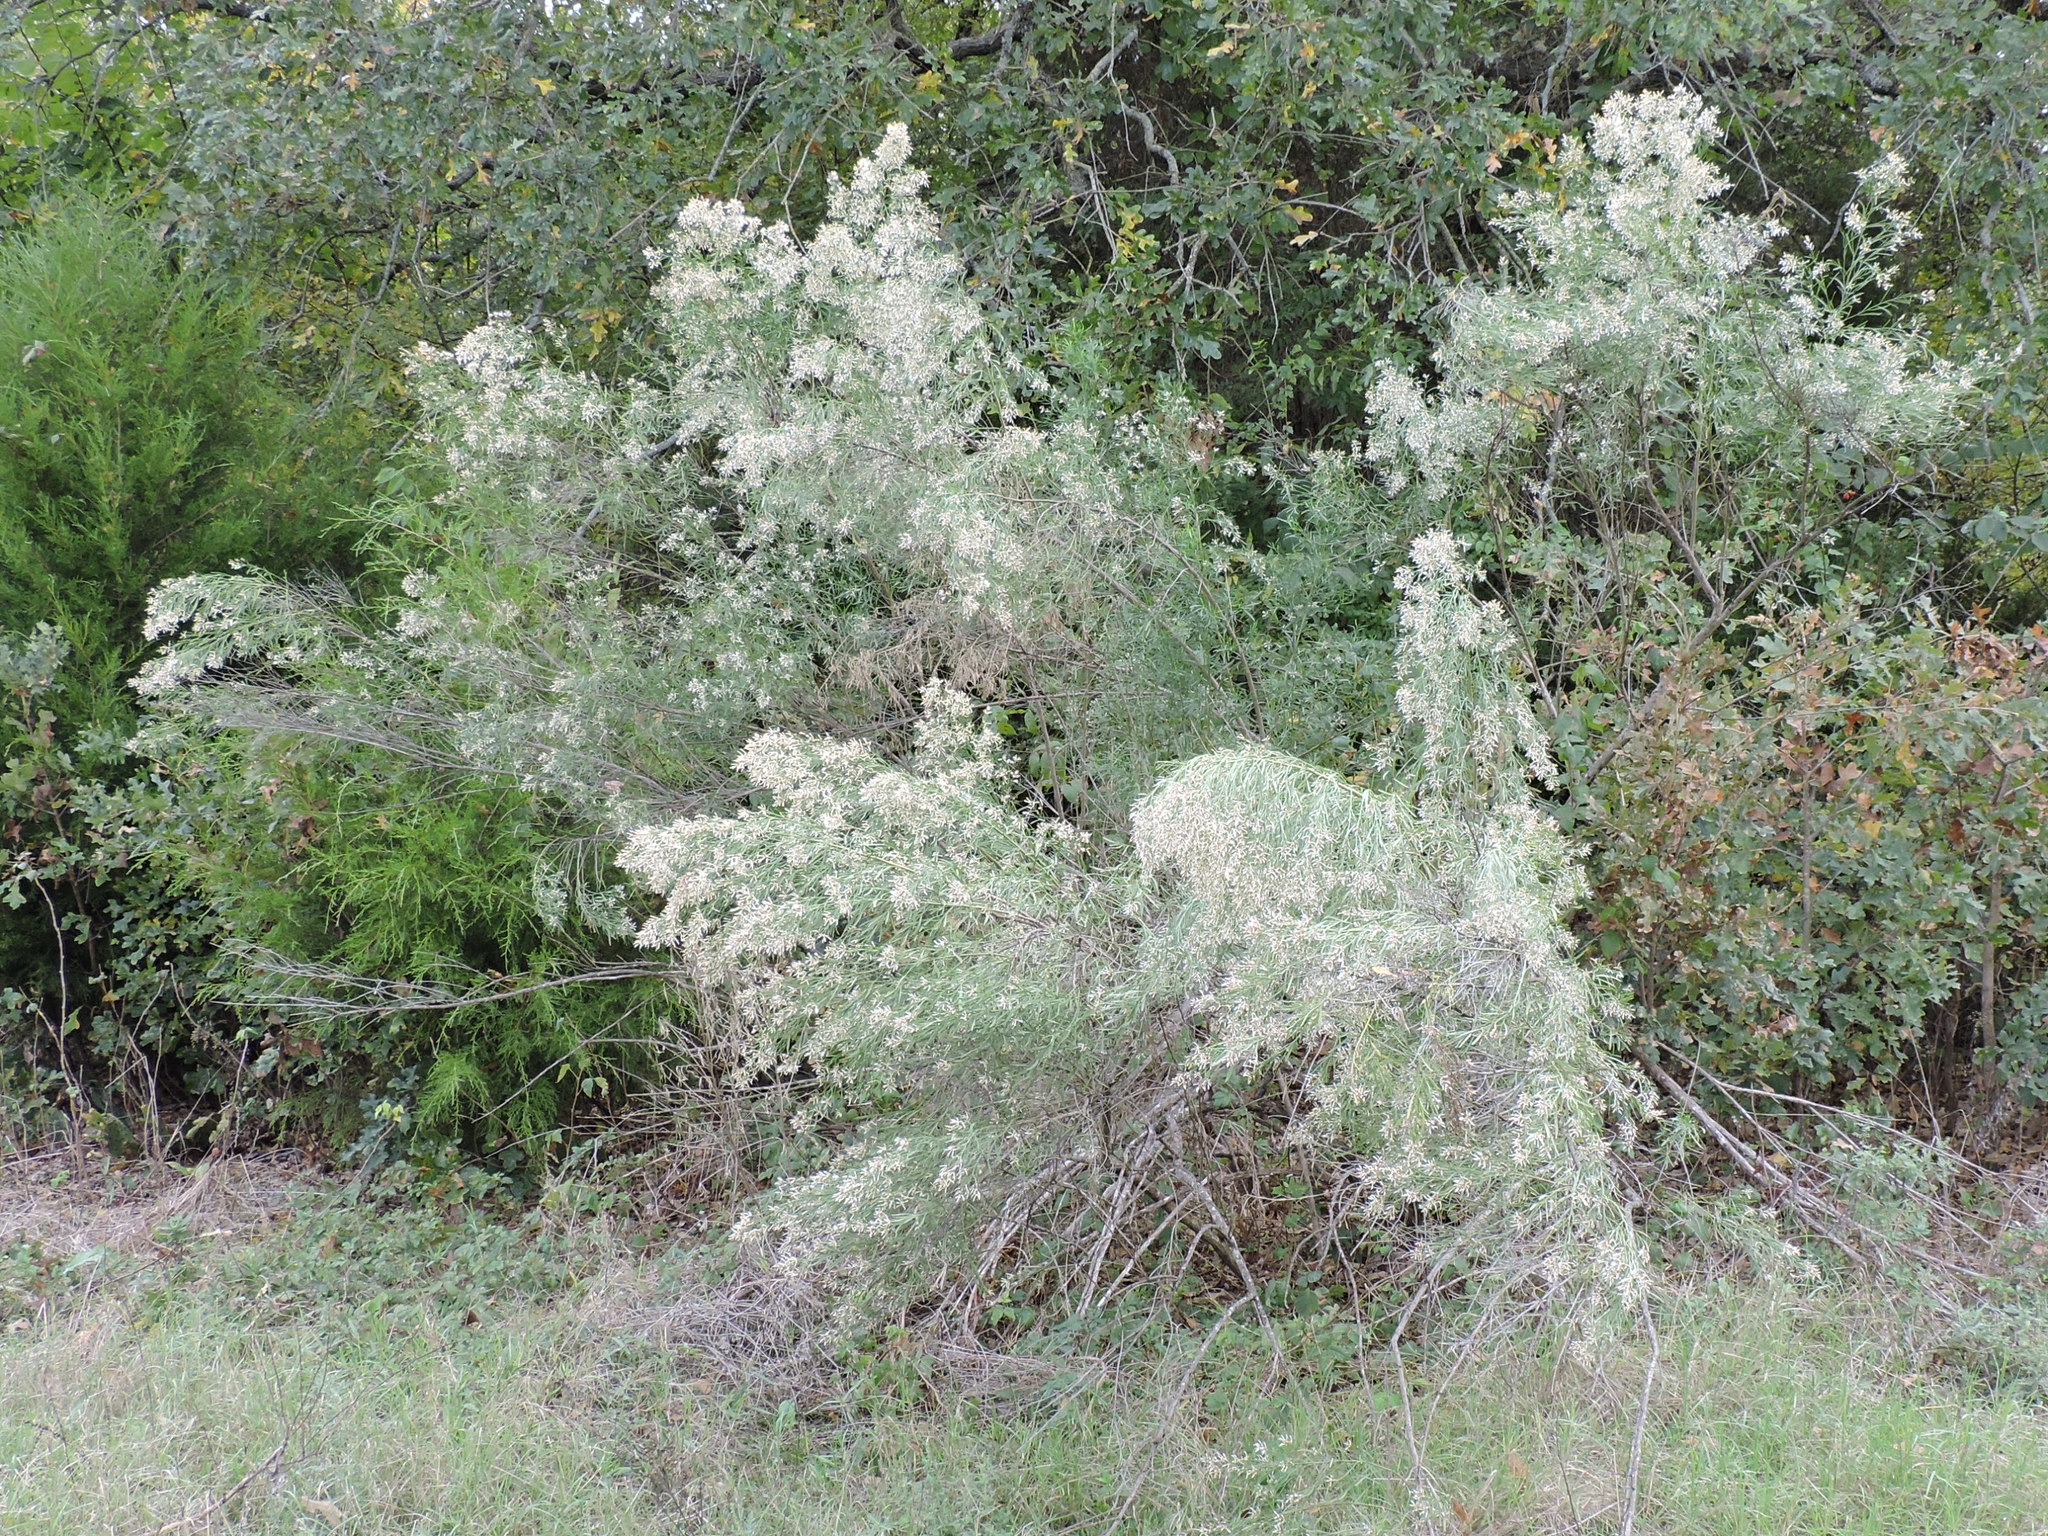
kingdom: Plantae
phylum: Tracheophyta
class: Magnoliopsida
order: Asterales
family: Asteraceae
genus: Baccharis
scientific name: Baccharis neglecta
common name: Roosevelt-weed
